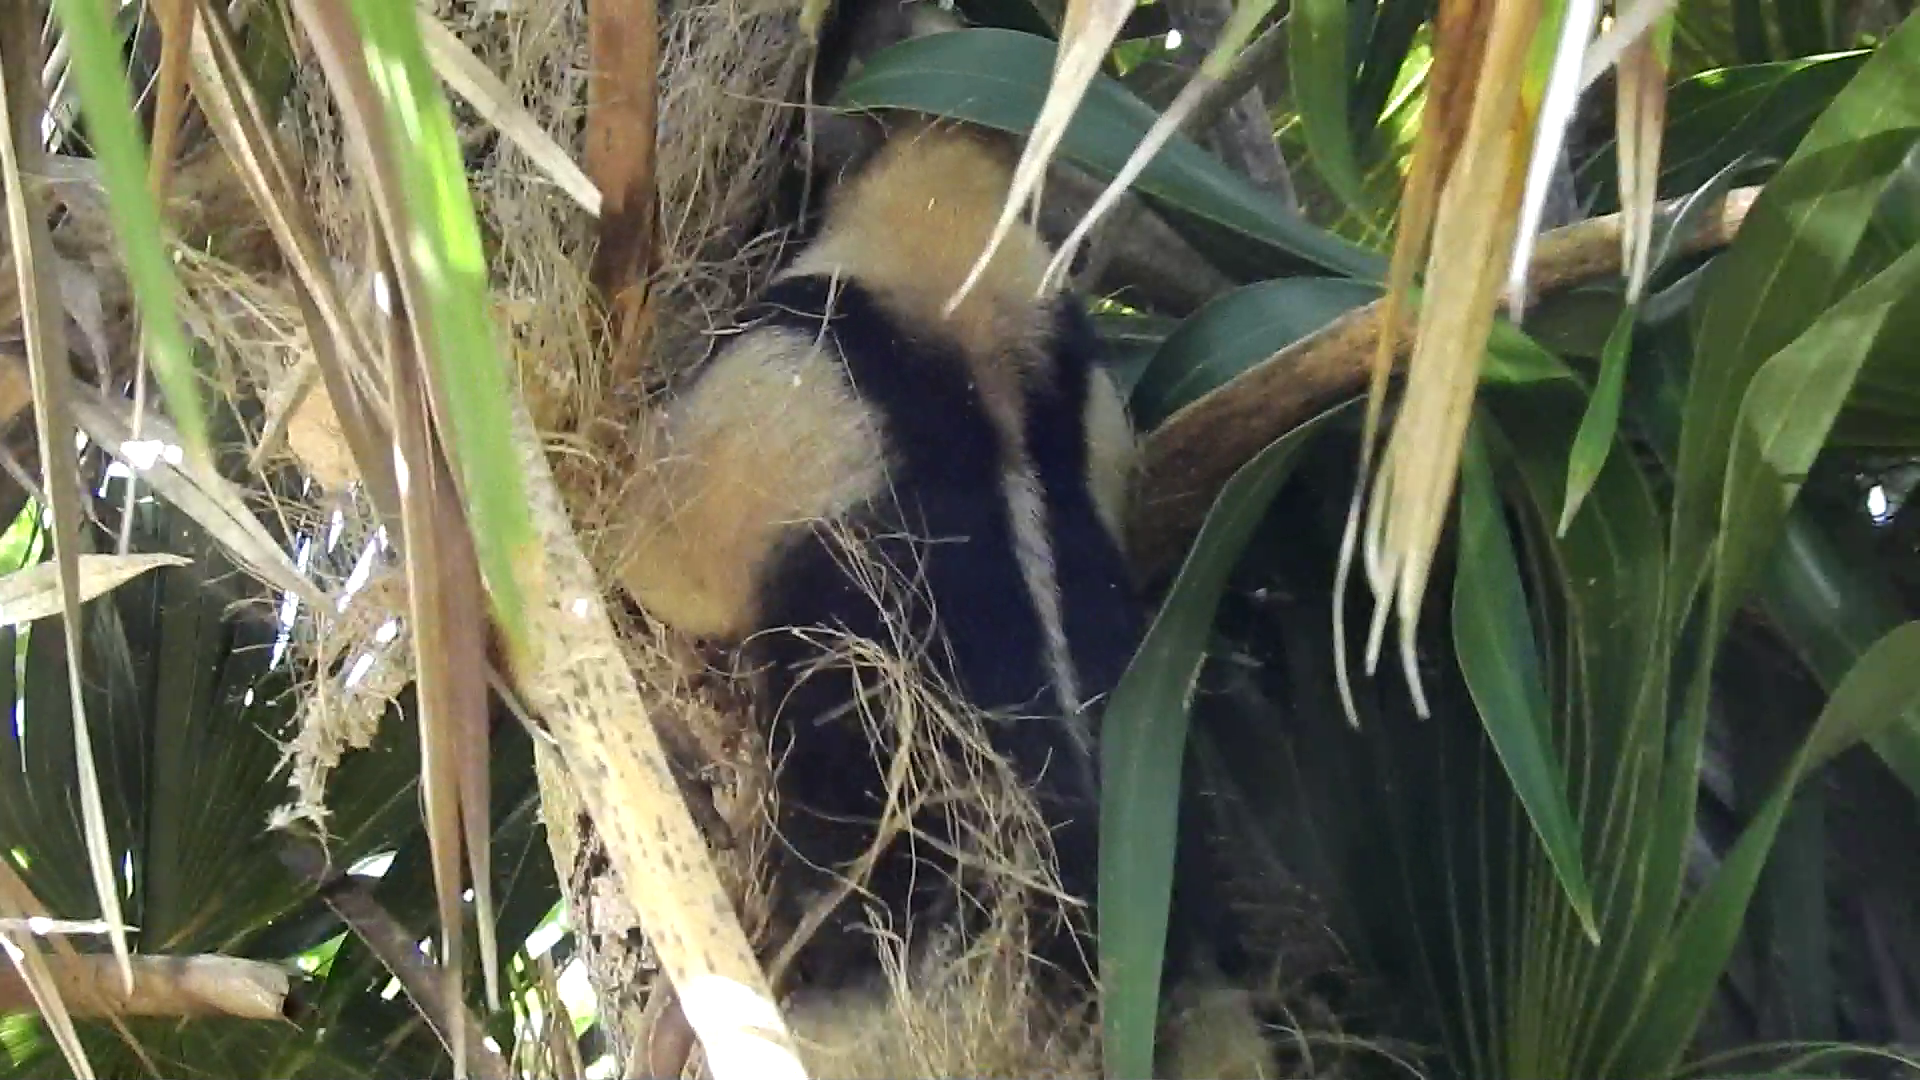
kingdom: Animalia
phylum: Chordata
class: Mammalia
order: Pilosa
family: Myrmecophagidae
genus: Tamandua
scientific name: Tamandua mexicana
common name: Northern tamandua
